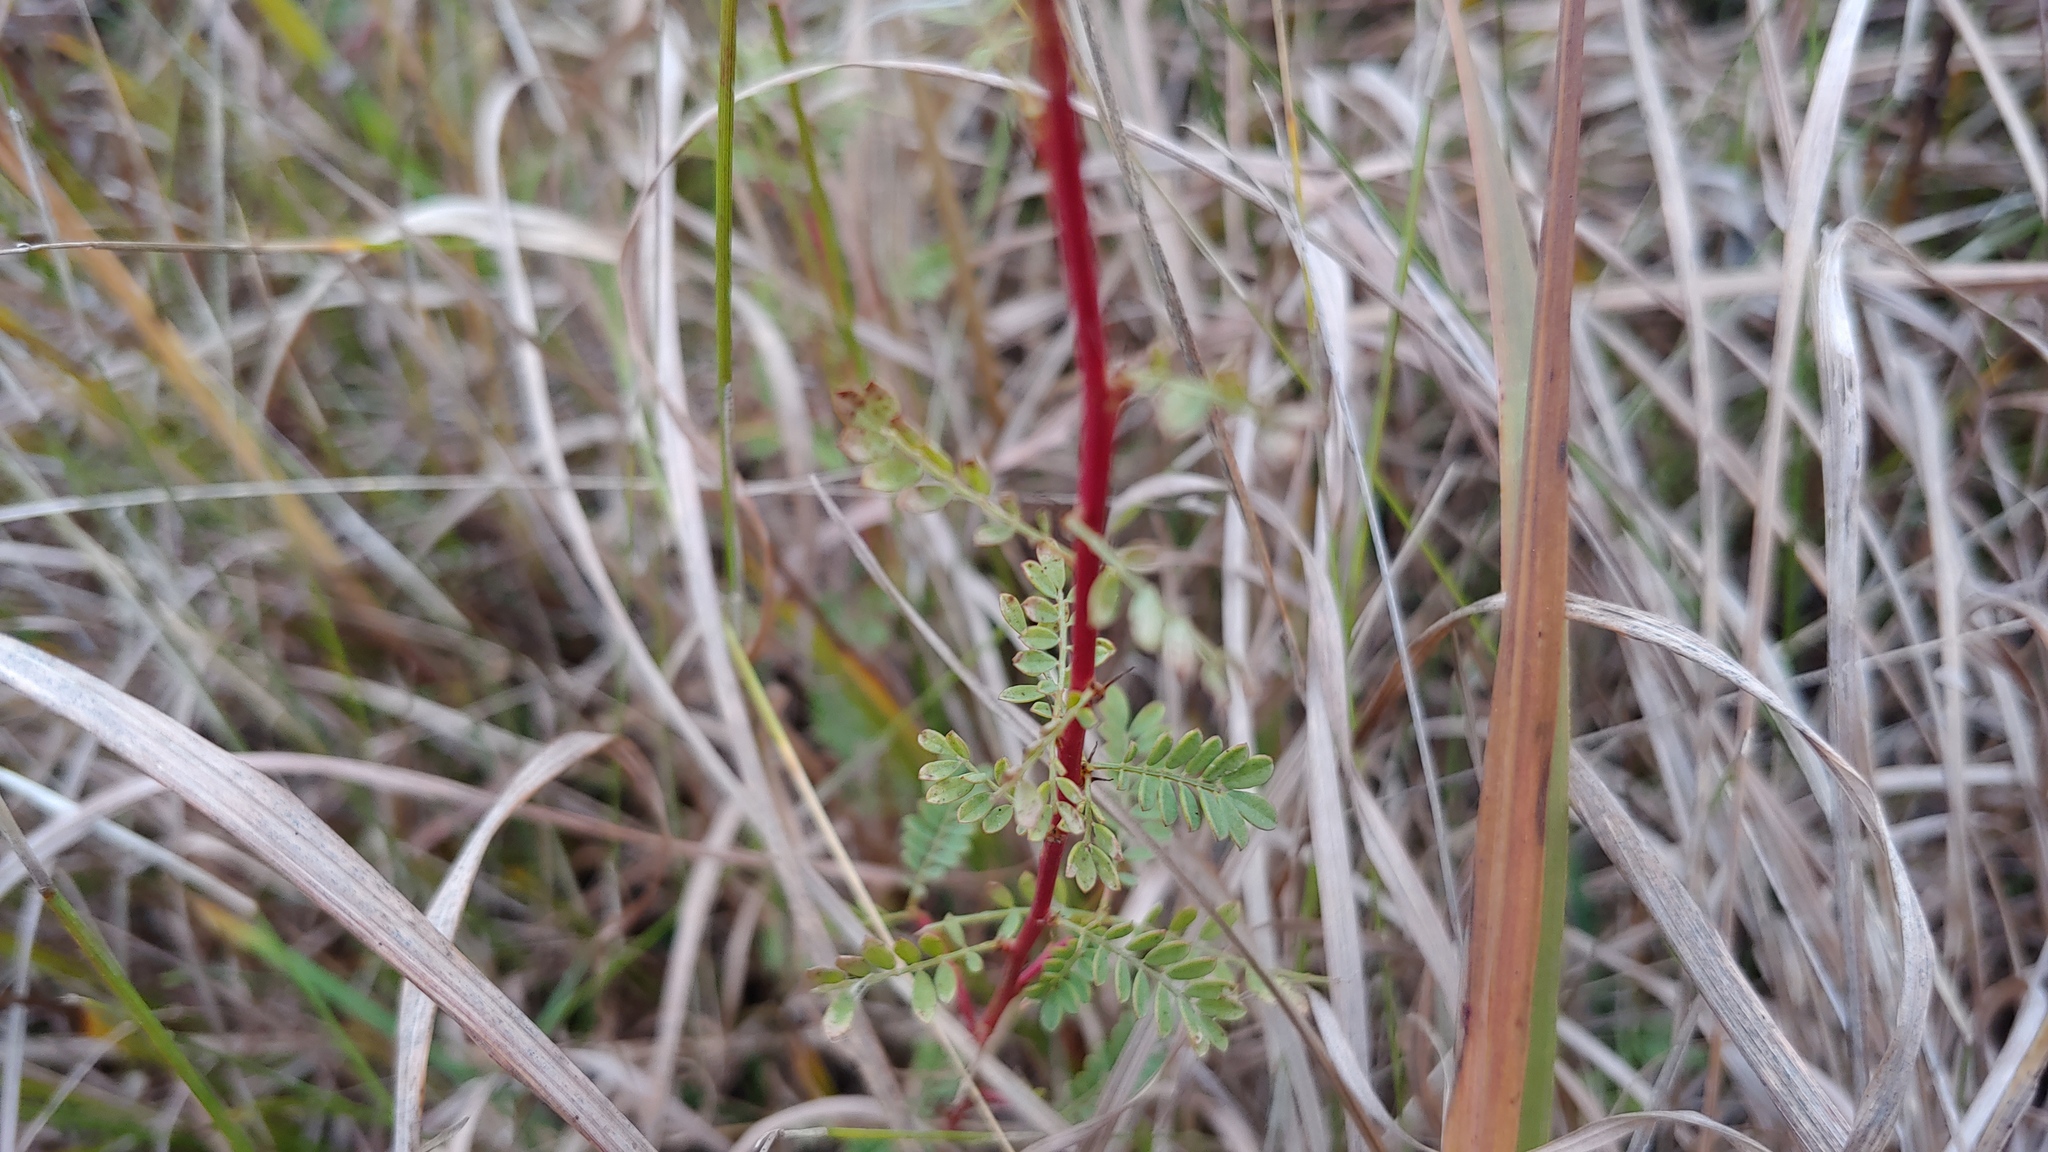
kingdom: Plantae
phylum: Tracheophyta
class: Magnoliopsida
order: Fabales
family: Fabaceae
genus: Dalea
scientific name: Dalea foliosa
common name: Leafy prairie-clover
